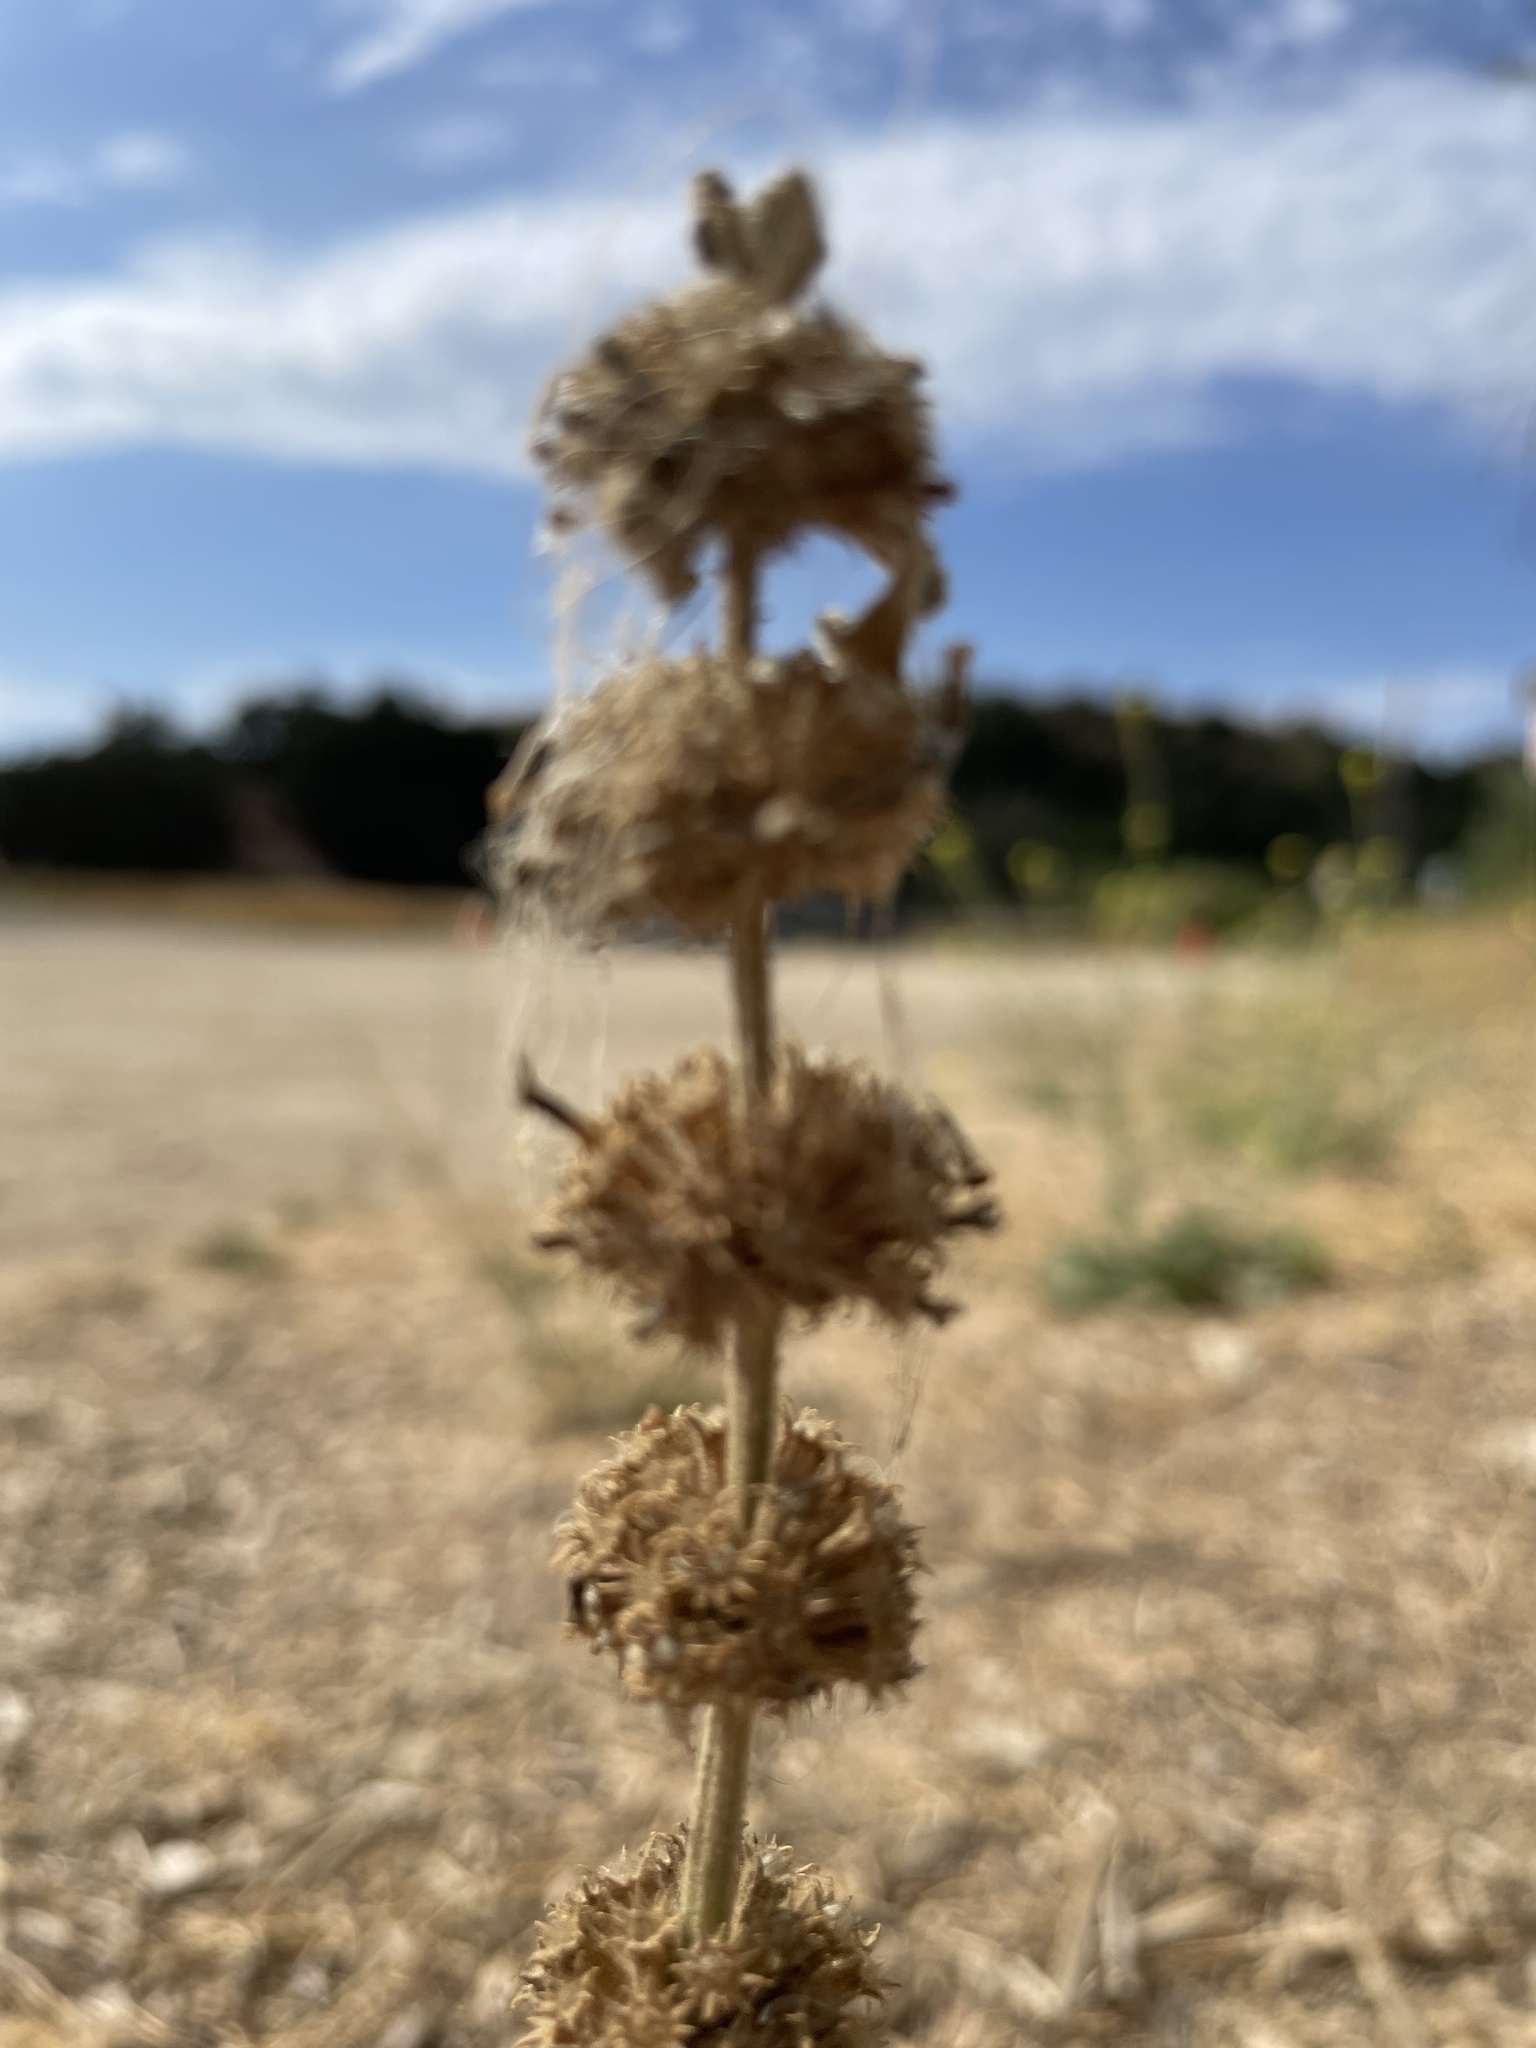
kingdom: Plantae
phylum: Tracheophyta
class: Magnoliopsida
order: Lamiales
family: Lamiaceae
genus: Marrubium
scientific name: Marrubium vulgare
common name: Horehound
